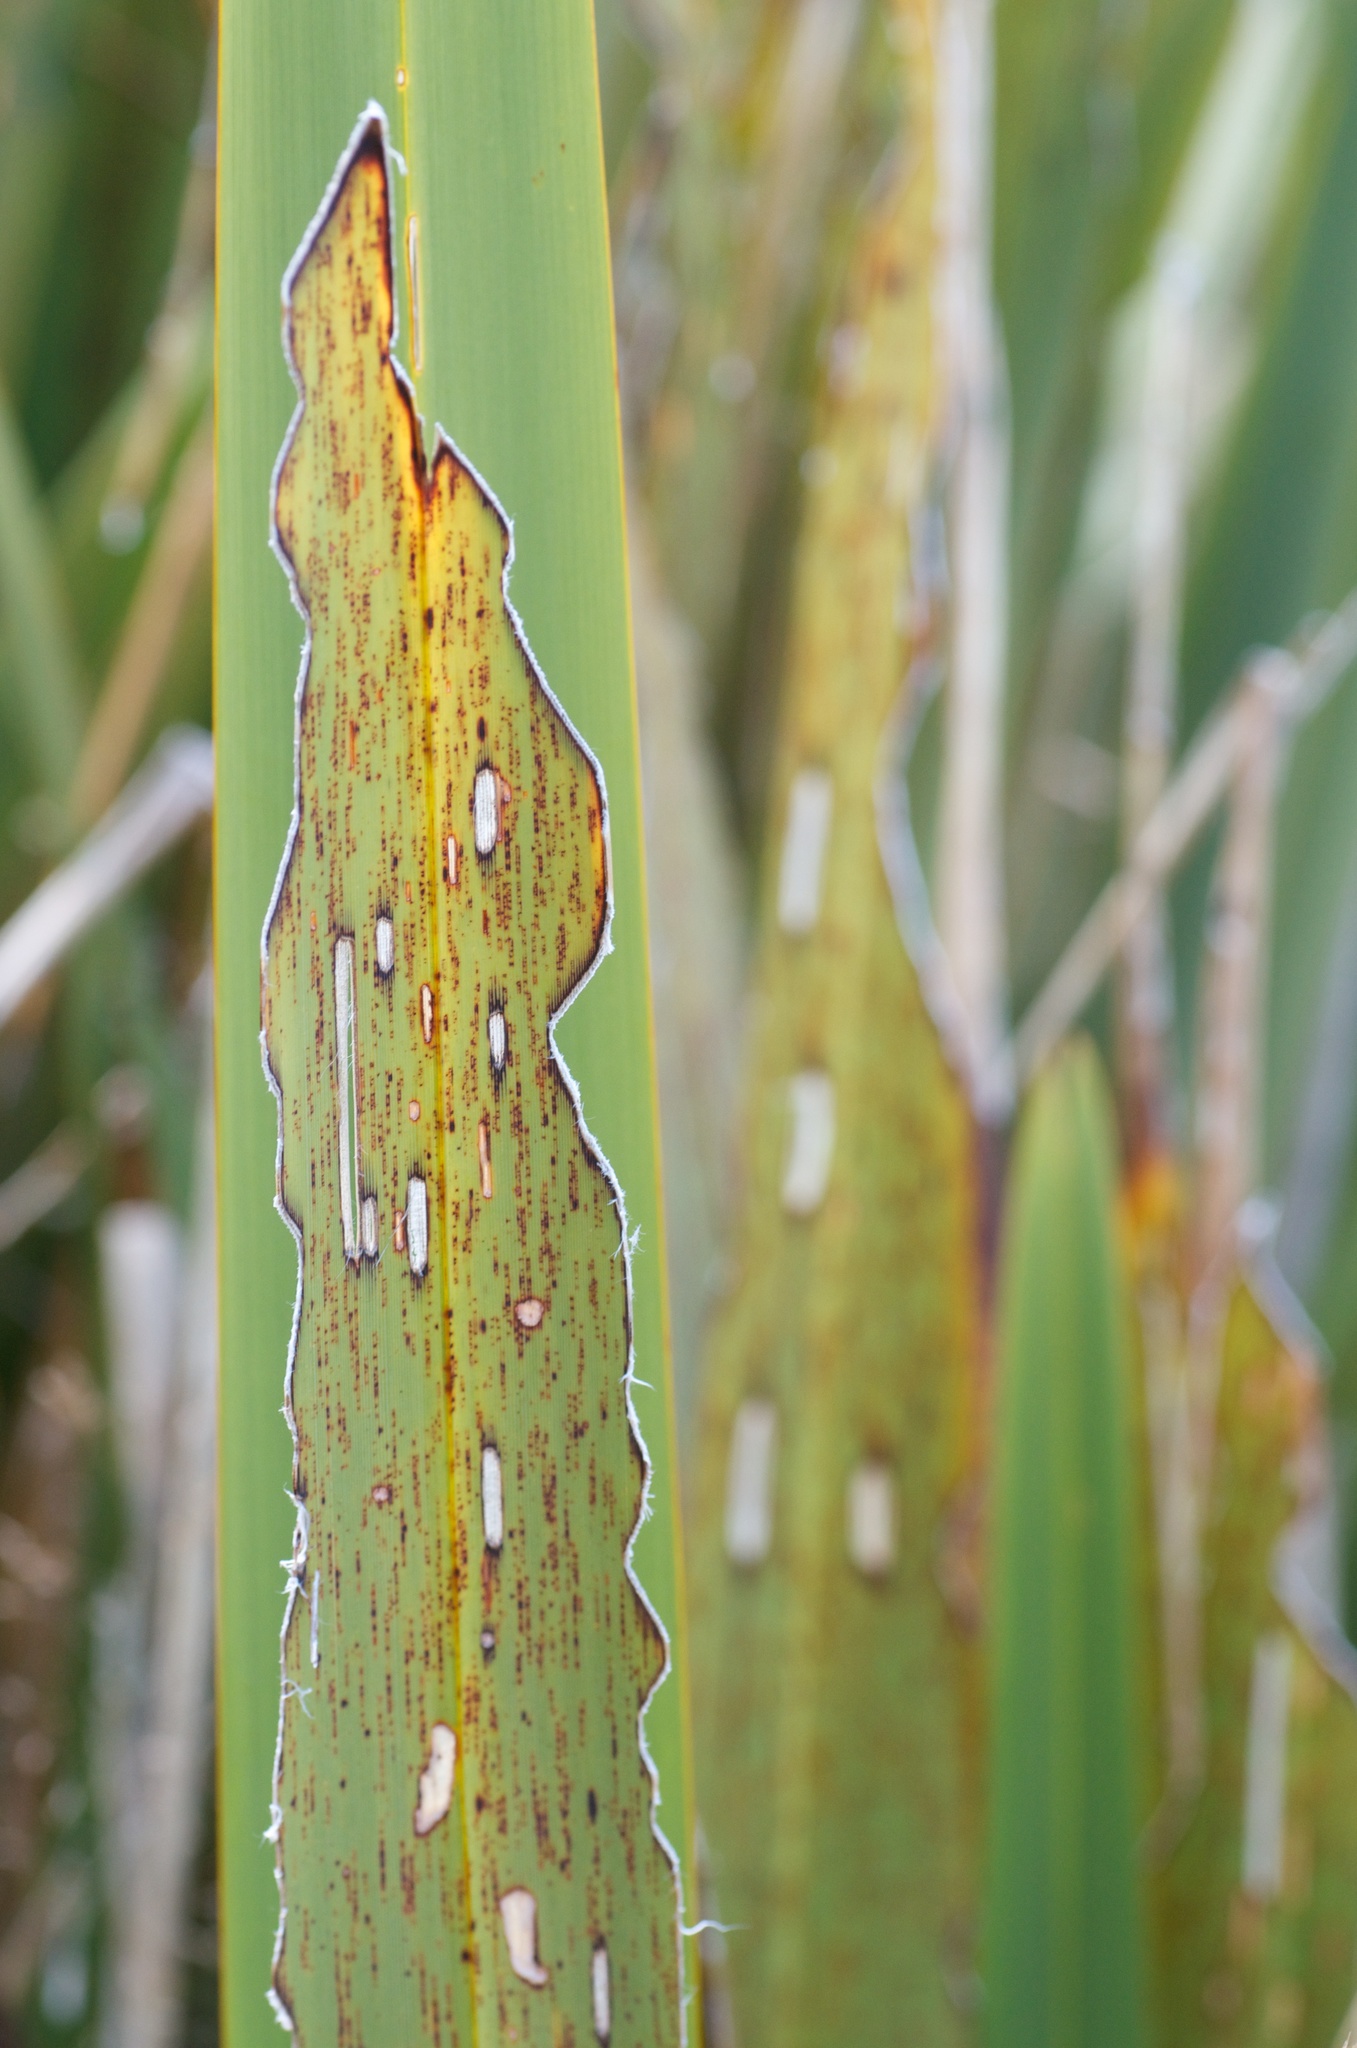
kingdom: Animalia
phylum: Arthropoda
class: Insecta
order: Lepidoptera
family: Noctuidae
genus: Ichneutica
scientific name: Ichneutica
